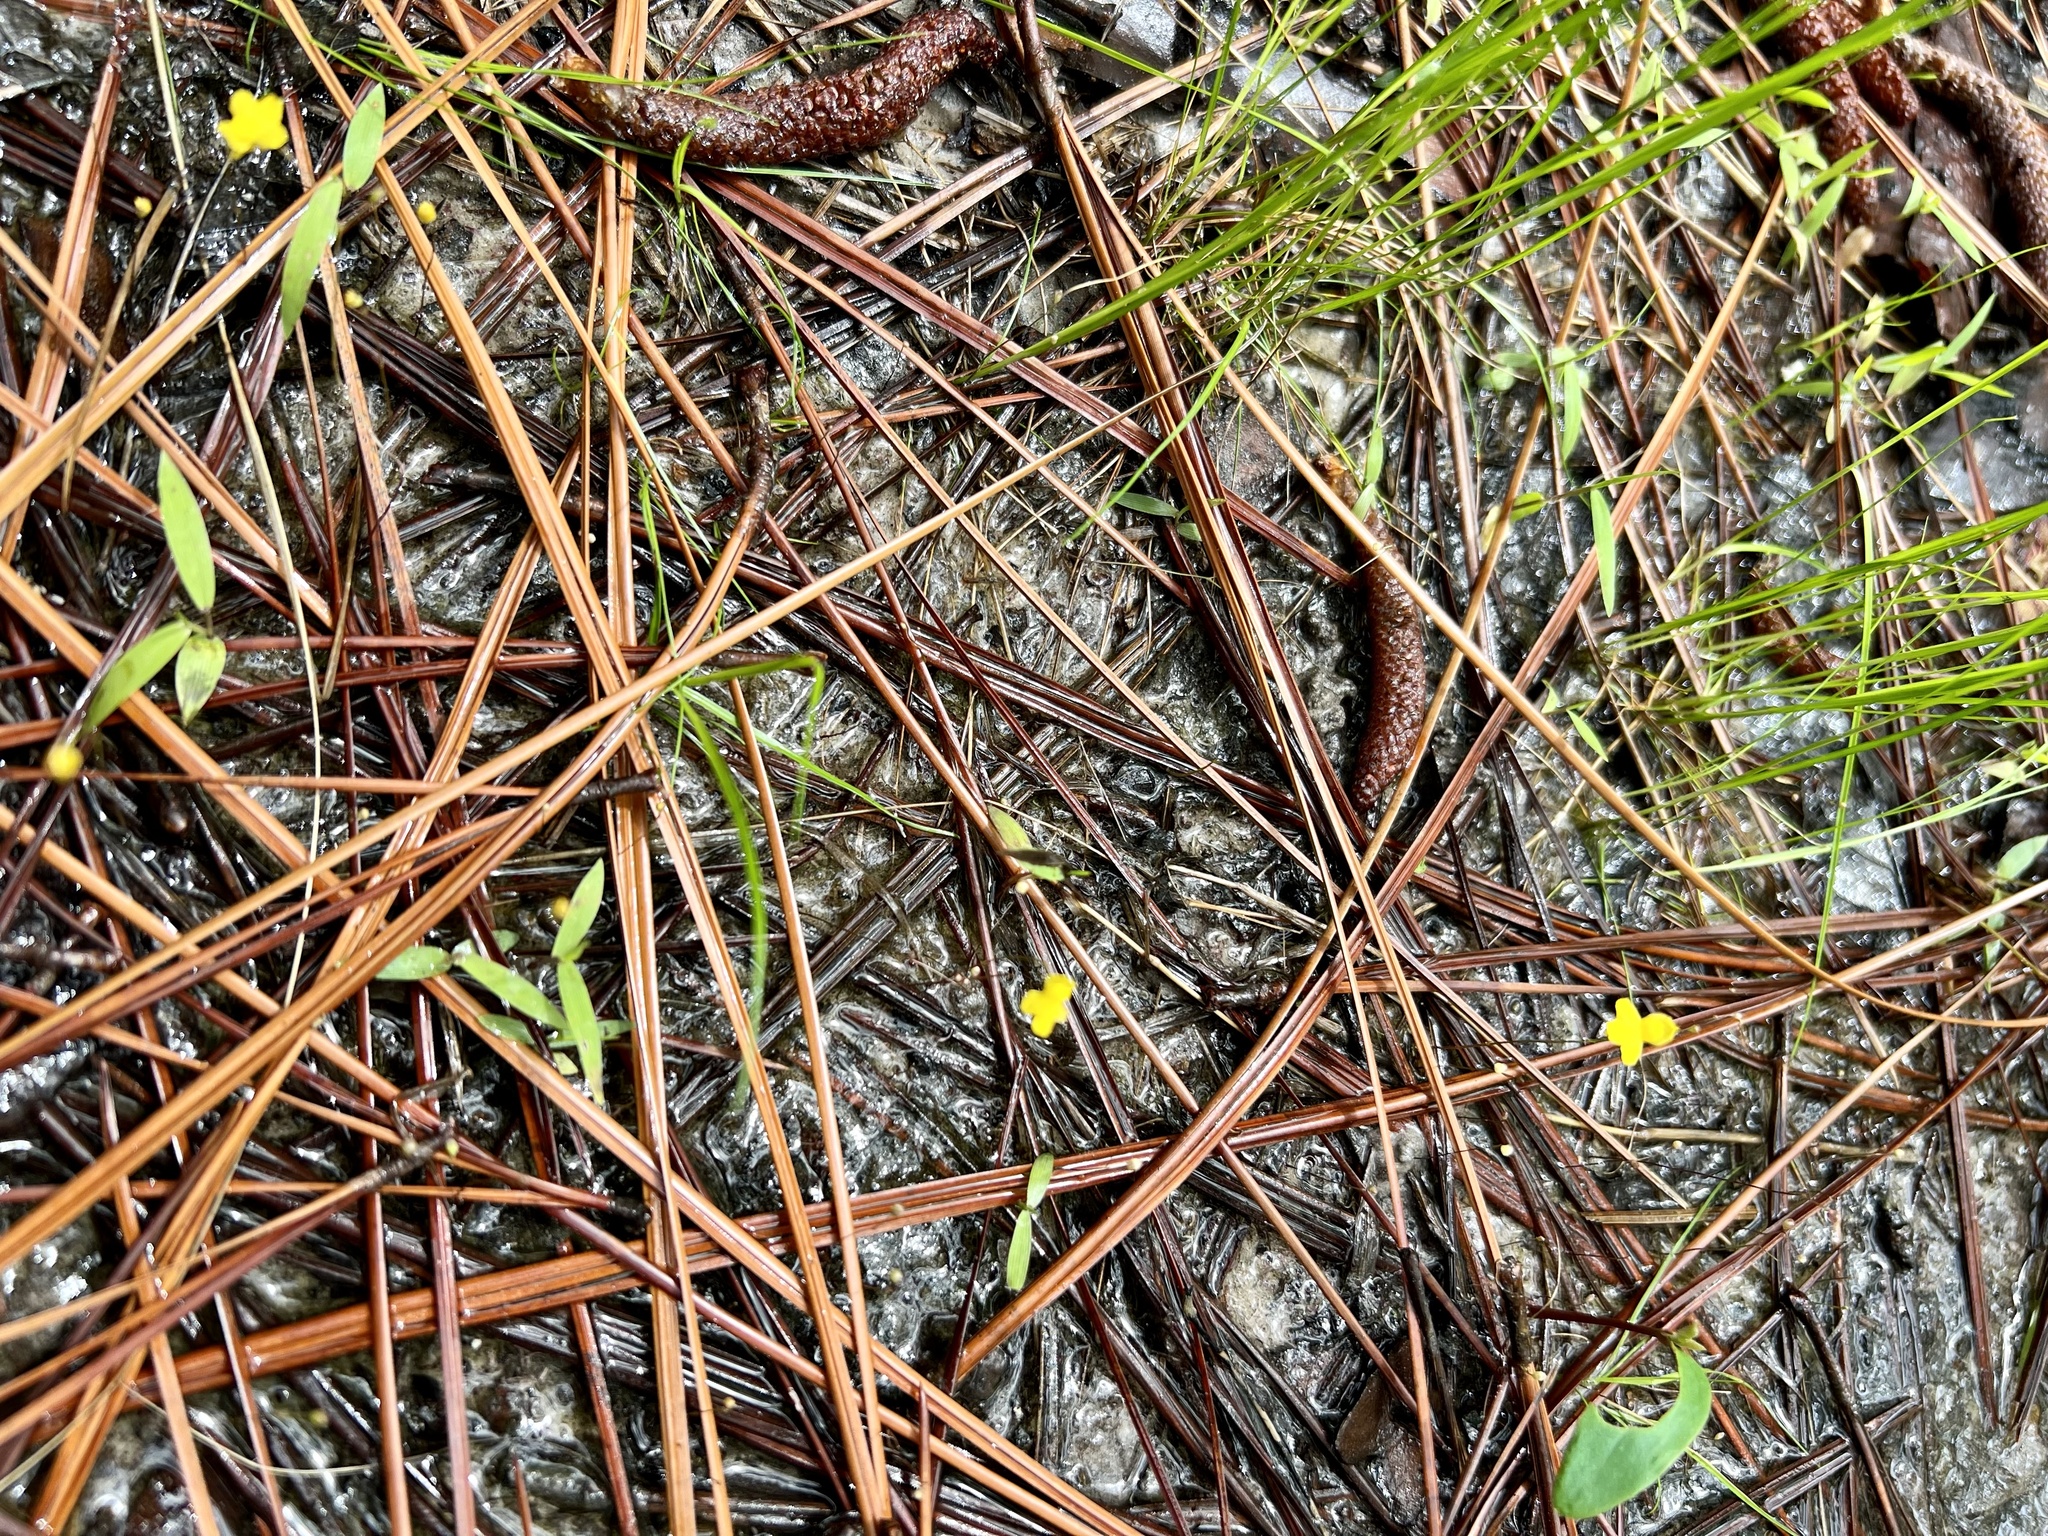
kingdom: Plantae
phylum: Tracheophyta
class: Magnoliopsida
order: Lamiales
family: Lentibulariaceae
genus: Utricularia
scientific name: Utricularia subulata
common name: Tiny bladderwort
